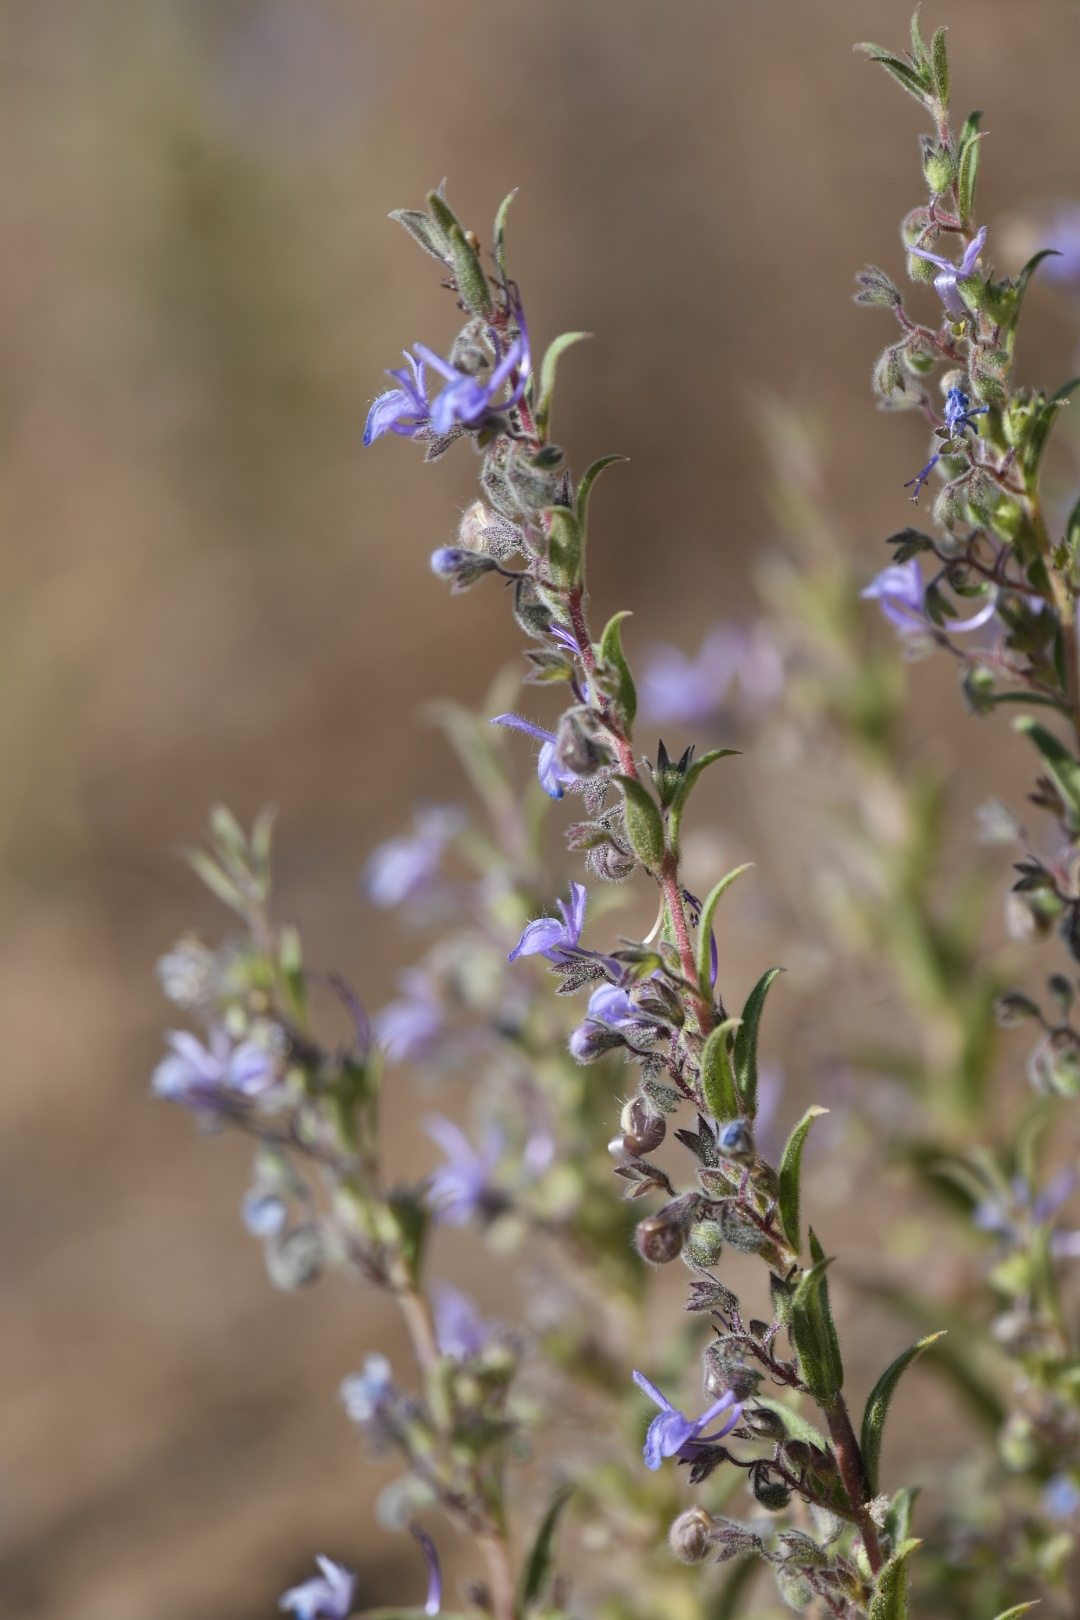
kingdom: Plantae
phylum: Tracheophyta
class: Magnoliopsida
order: Lamiales
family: Lamiaceae
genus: Trichostema
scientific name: Trichostema lanceolatum
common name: Vinegar-weed
